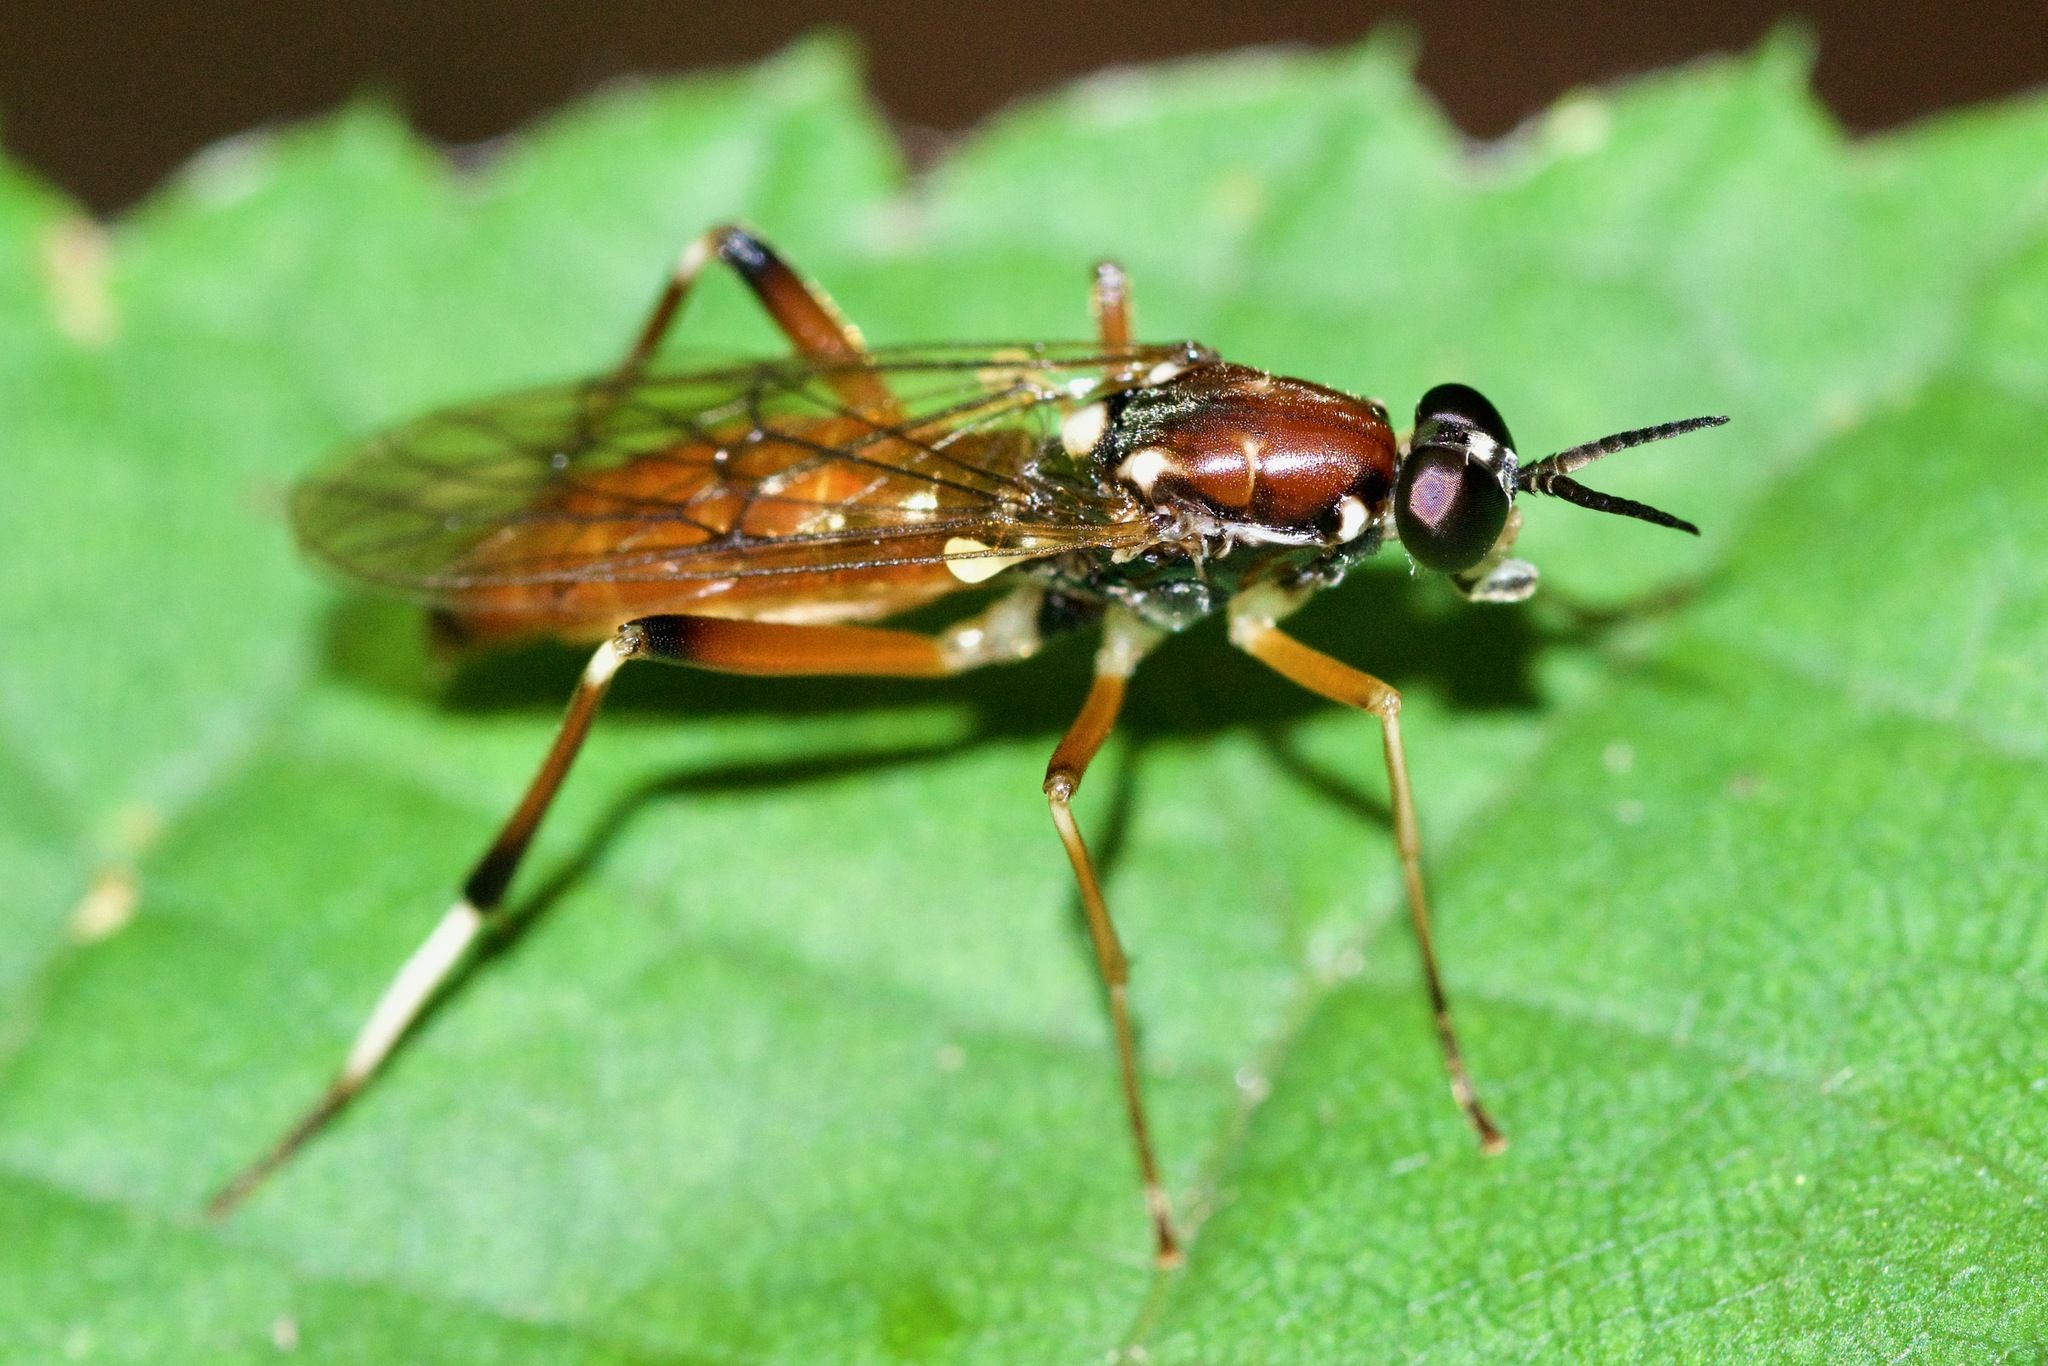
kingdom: Animalia
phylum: Arthropoda
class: Insecta
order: Diptera
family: Xylomyidae
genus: Xylomya
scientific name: Xylomya pallidifemur
